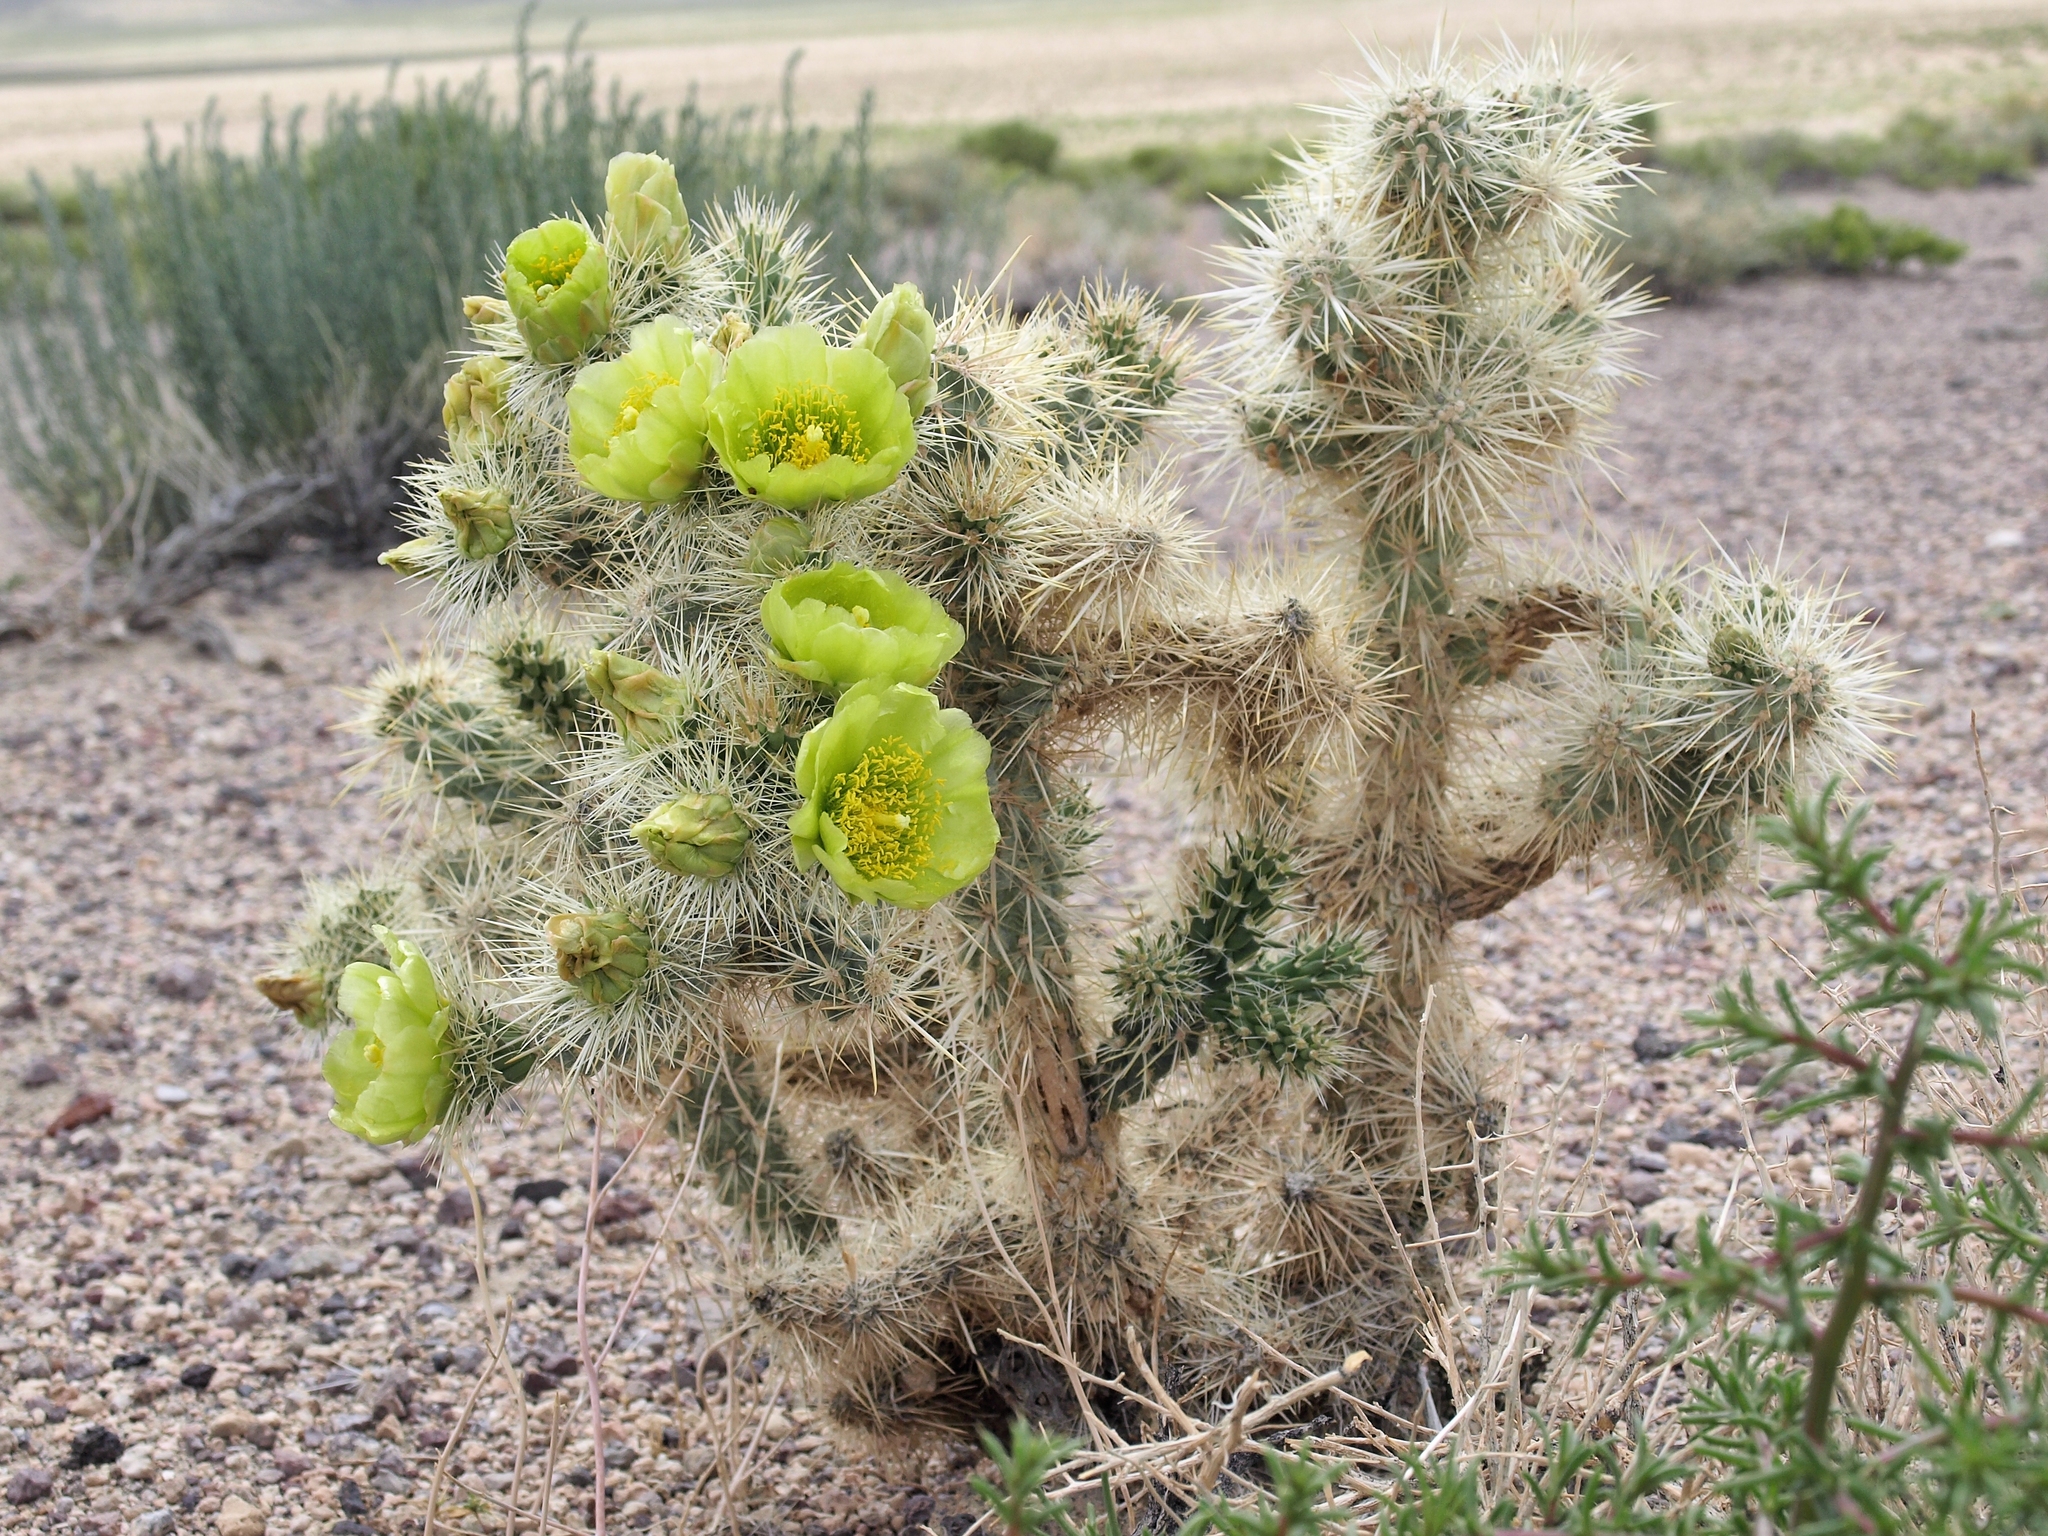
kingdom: Plantae
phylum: Tracheophyta
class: Magnoliopsida
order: Caryophyllales
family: Cactaceae
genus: Cylindropuntia
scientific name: Cylindropuntia echinocarpa
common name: Ground cholla
